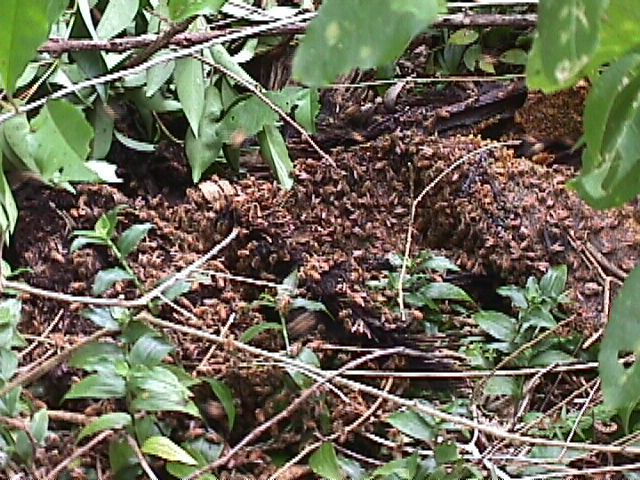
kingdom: Animalia
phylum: Arthropoda
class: Insecta
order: Hymenoptera
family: Apidae
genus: Apis
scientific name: Apis mellifera
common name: Honey bee
